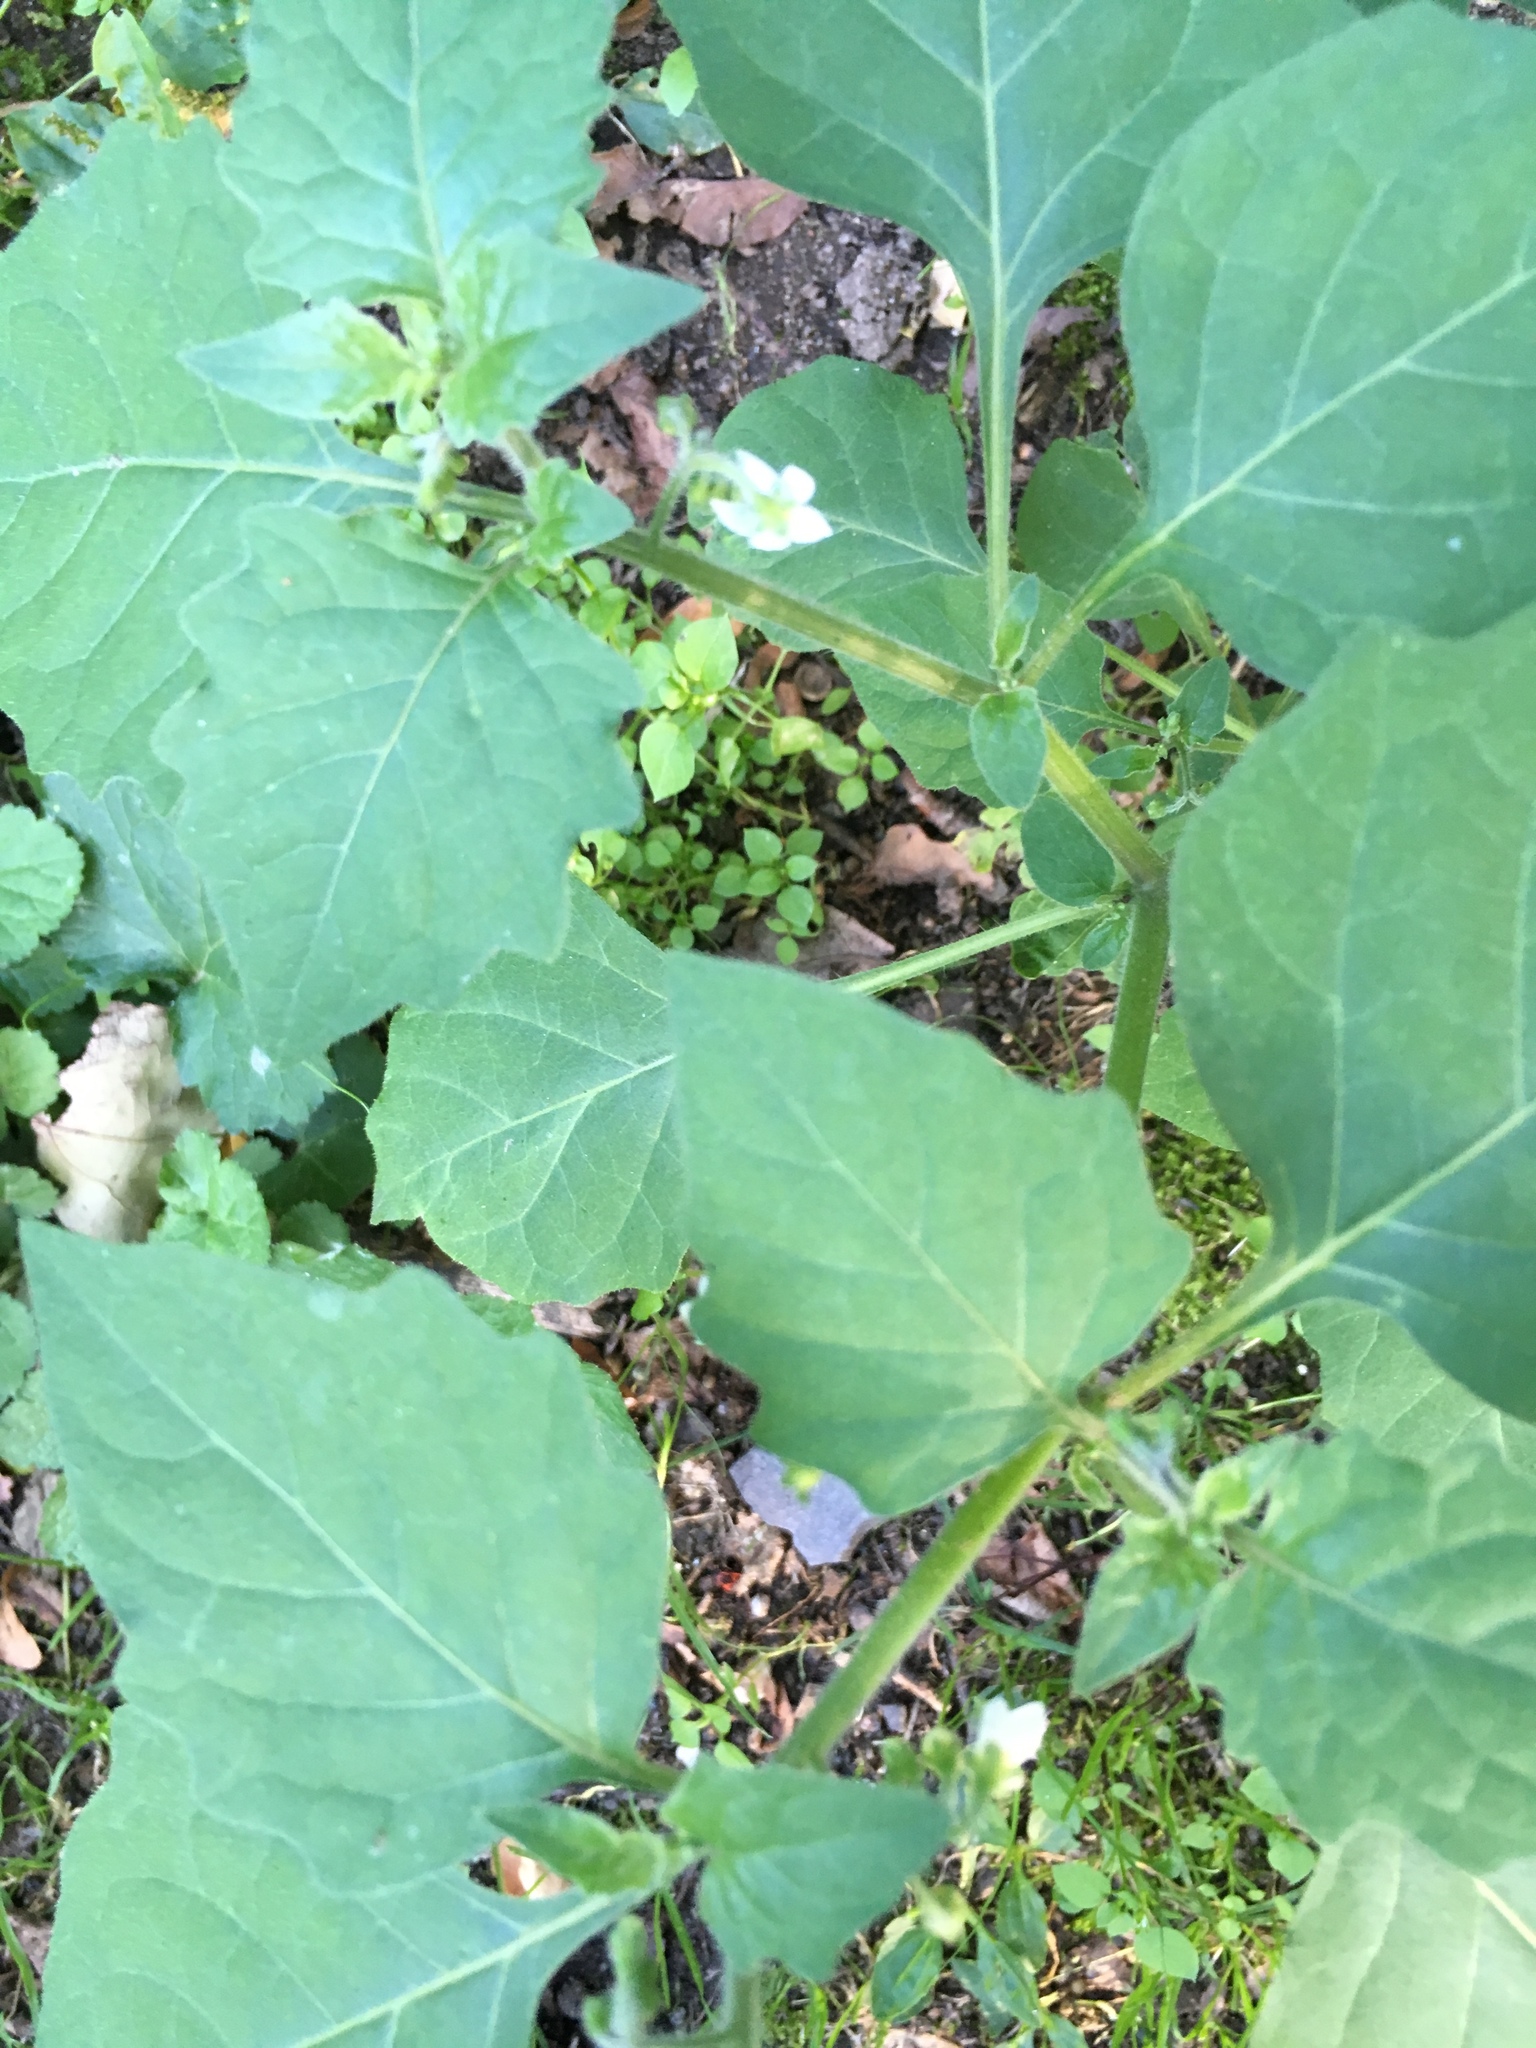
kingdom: Plantae
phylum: Tracheophyta
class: Magnoliopsida
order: Solanales
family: Solanaceae
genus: Solanum
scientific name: Solanum nigrum
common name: Black nightshade
